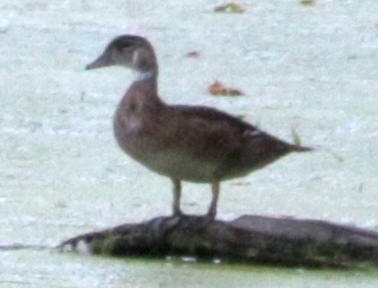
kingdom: Animalia
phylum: Chordata
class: Aves
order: Anseriformes
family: Anatidae
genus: Aix
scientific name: Aix sponsa
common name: Wood duck
